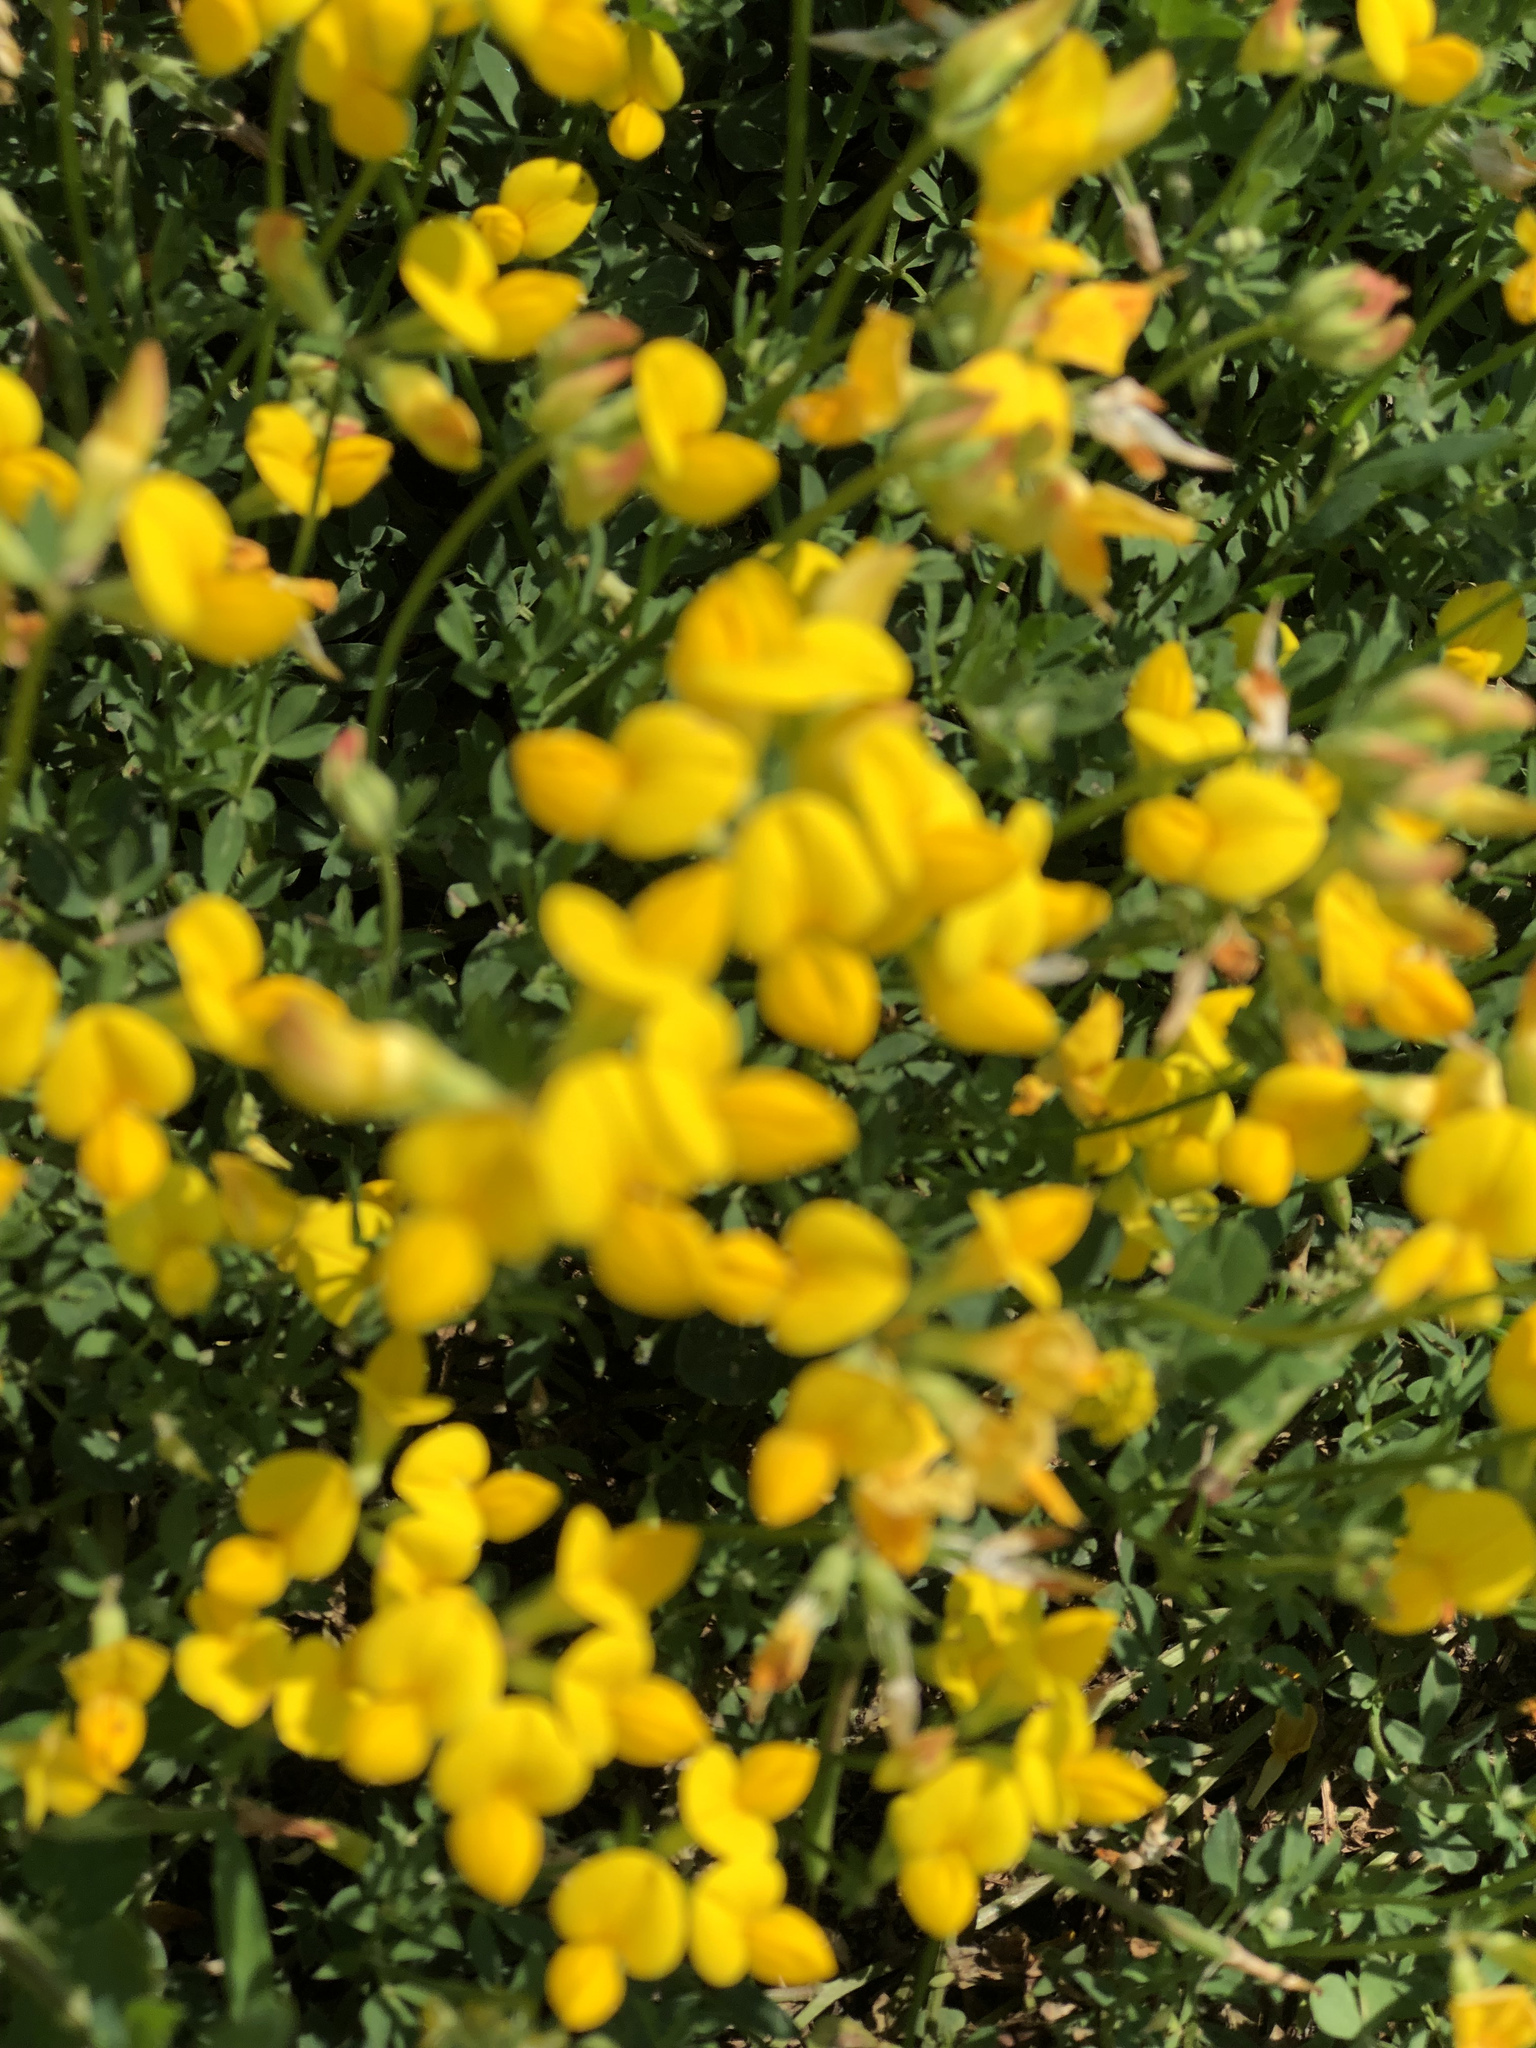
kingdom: Plantae
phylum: Tracheophyta
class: Magnoliopsida
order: Fabales
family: Fabaceae
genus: Lotus
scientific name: Lotus corniculatus
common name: Common bird's-foot-trefoil
